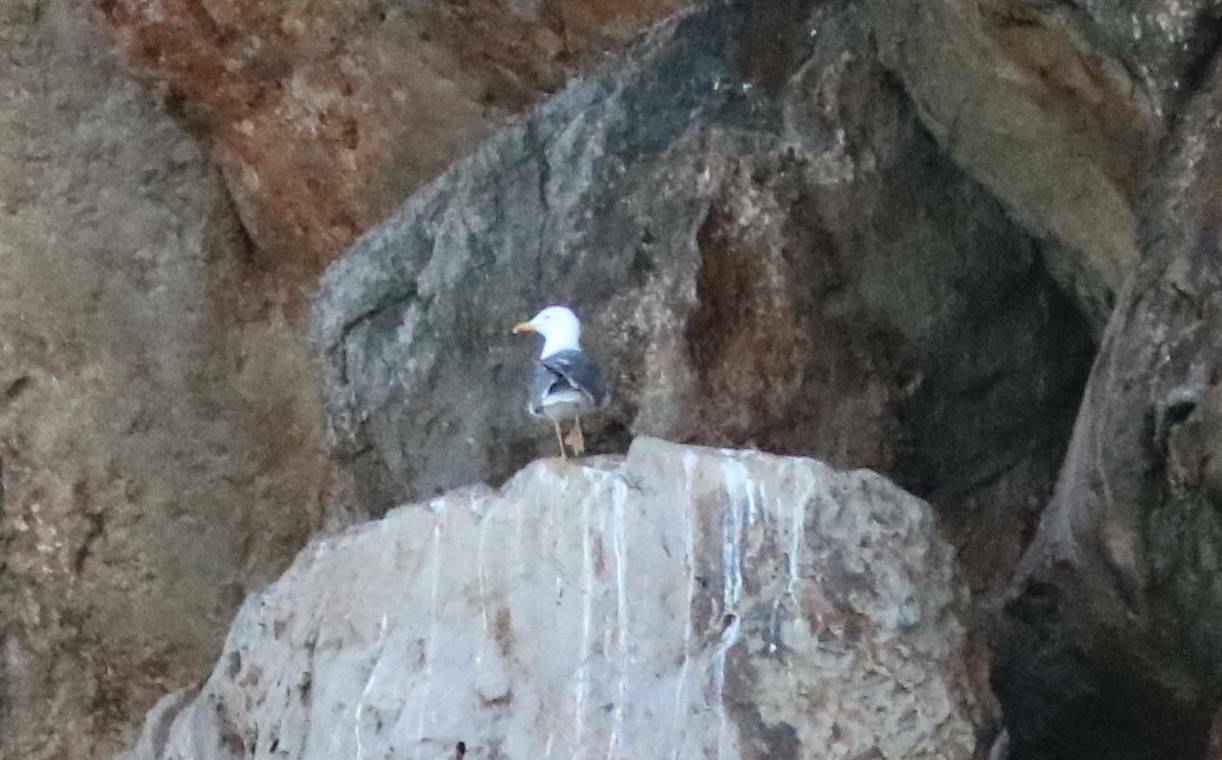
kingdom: Animalia
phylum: Chordata
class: Aves
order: Charadriiformes
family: Laridae
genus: Larus
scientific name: Larus michahellis
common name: Yellow-legged gull
